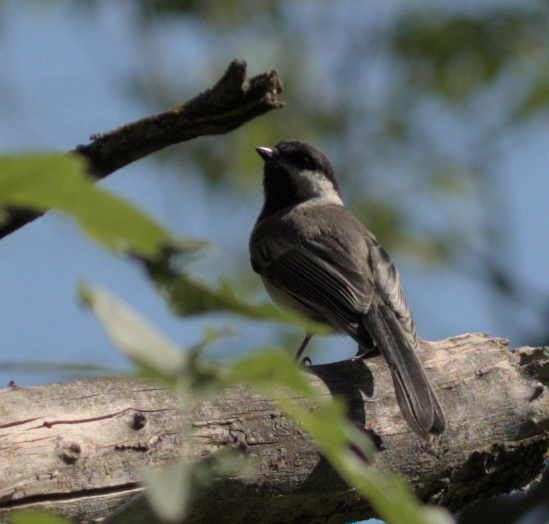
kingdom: Animalia
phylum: Chordata
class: Aves
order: Passeriformes
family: Paridae
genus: Poecile
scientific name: Poecile atricapillus
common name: Black-capped chickadee
